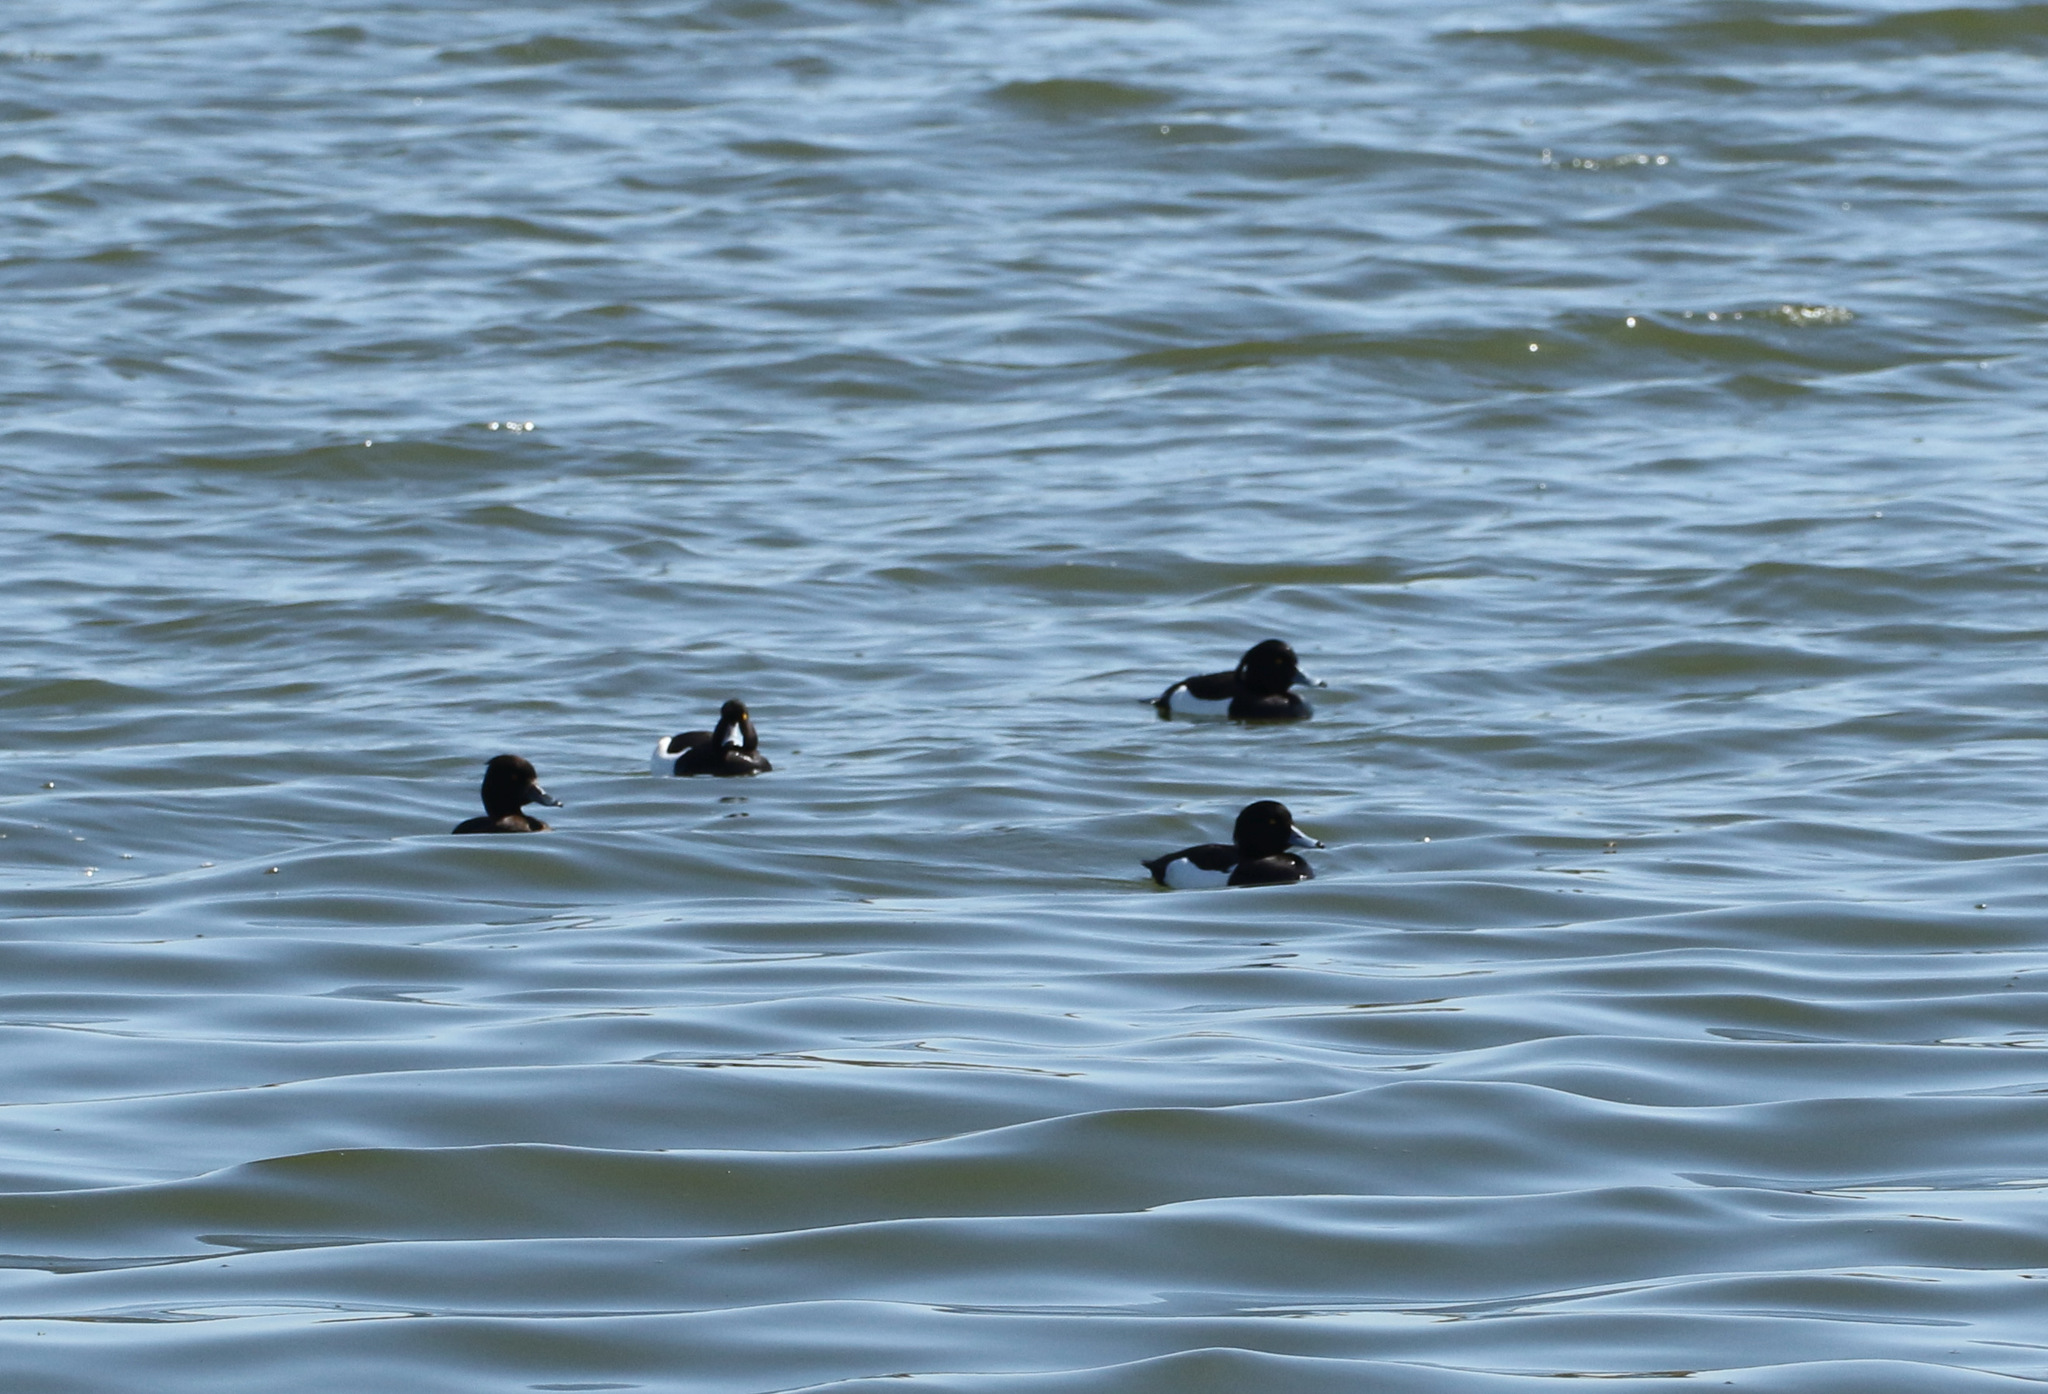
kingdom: Animalia
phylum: Chordata
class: Aves
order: Anseriformes
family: Anatidae
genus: Aythya
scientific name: Aythya fuligula
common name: Tufted duck
